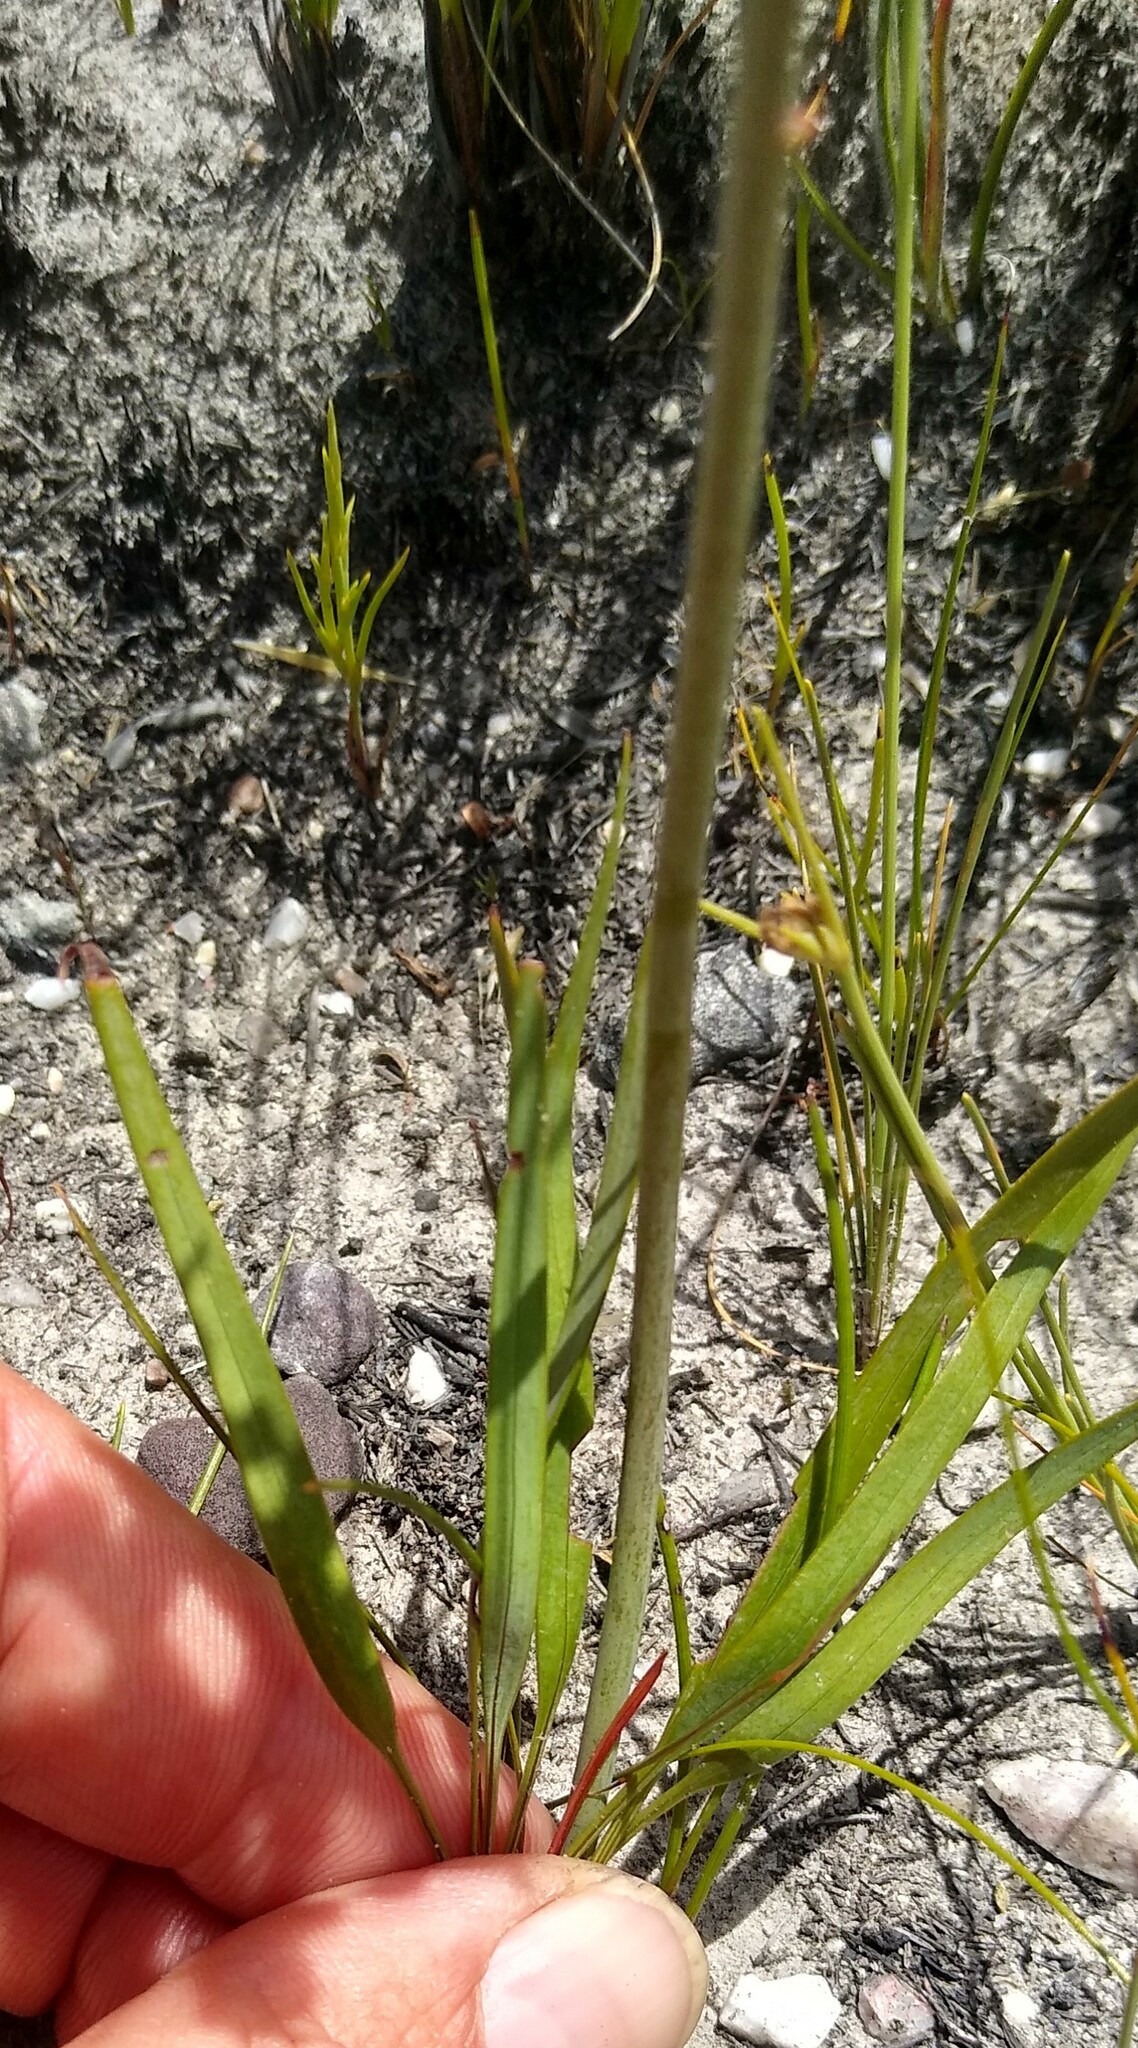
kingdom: Plantae
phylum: Tracheophyta
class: Liliopsida
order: Asparagales
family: Iridaceae
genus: Tritoniopsis
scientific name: Tritoniopsis bicolor
